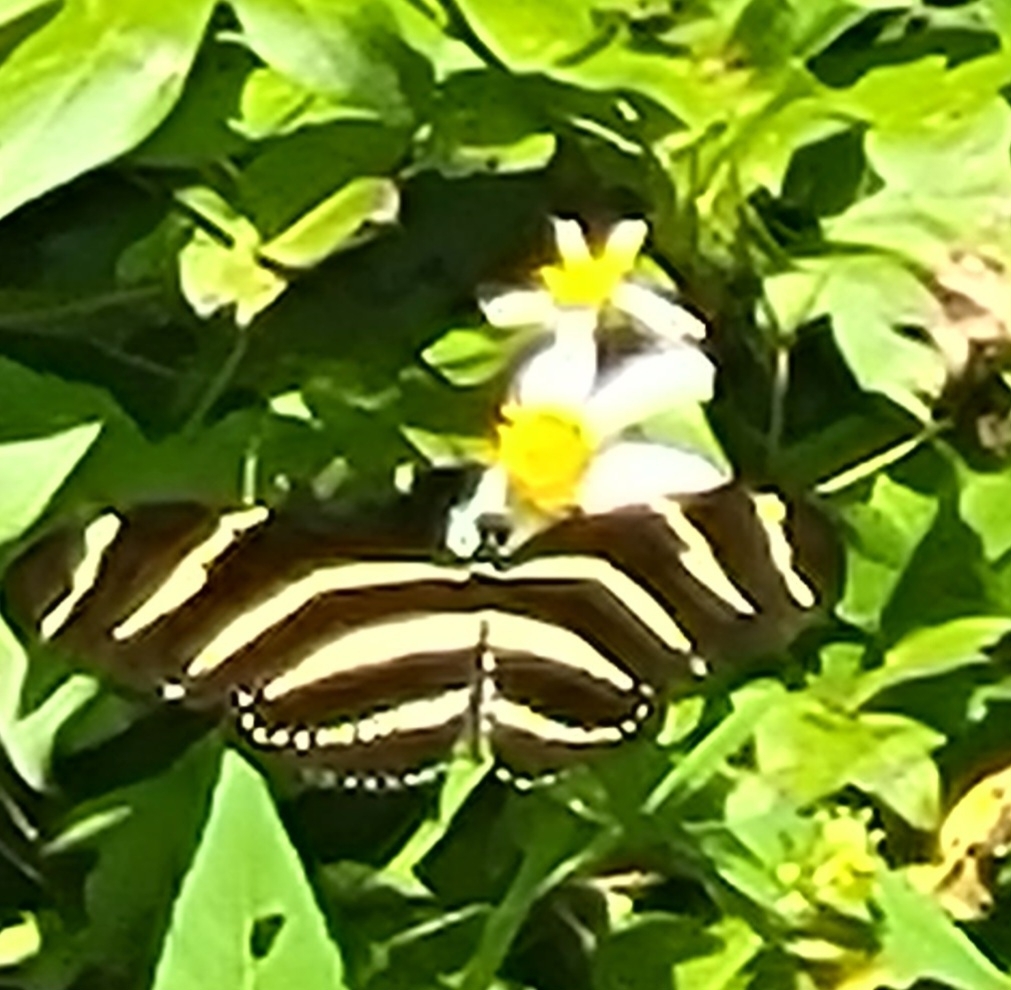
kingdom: Animalia
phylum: Arthropoda
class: Insecta
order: Lepidoptera
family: Nymphalidae
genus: Heliconius
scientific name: Heliconius charithonia
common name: Zebra long wing
